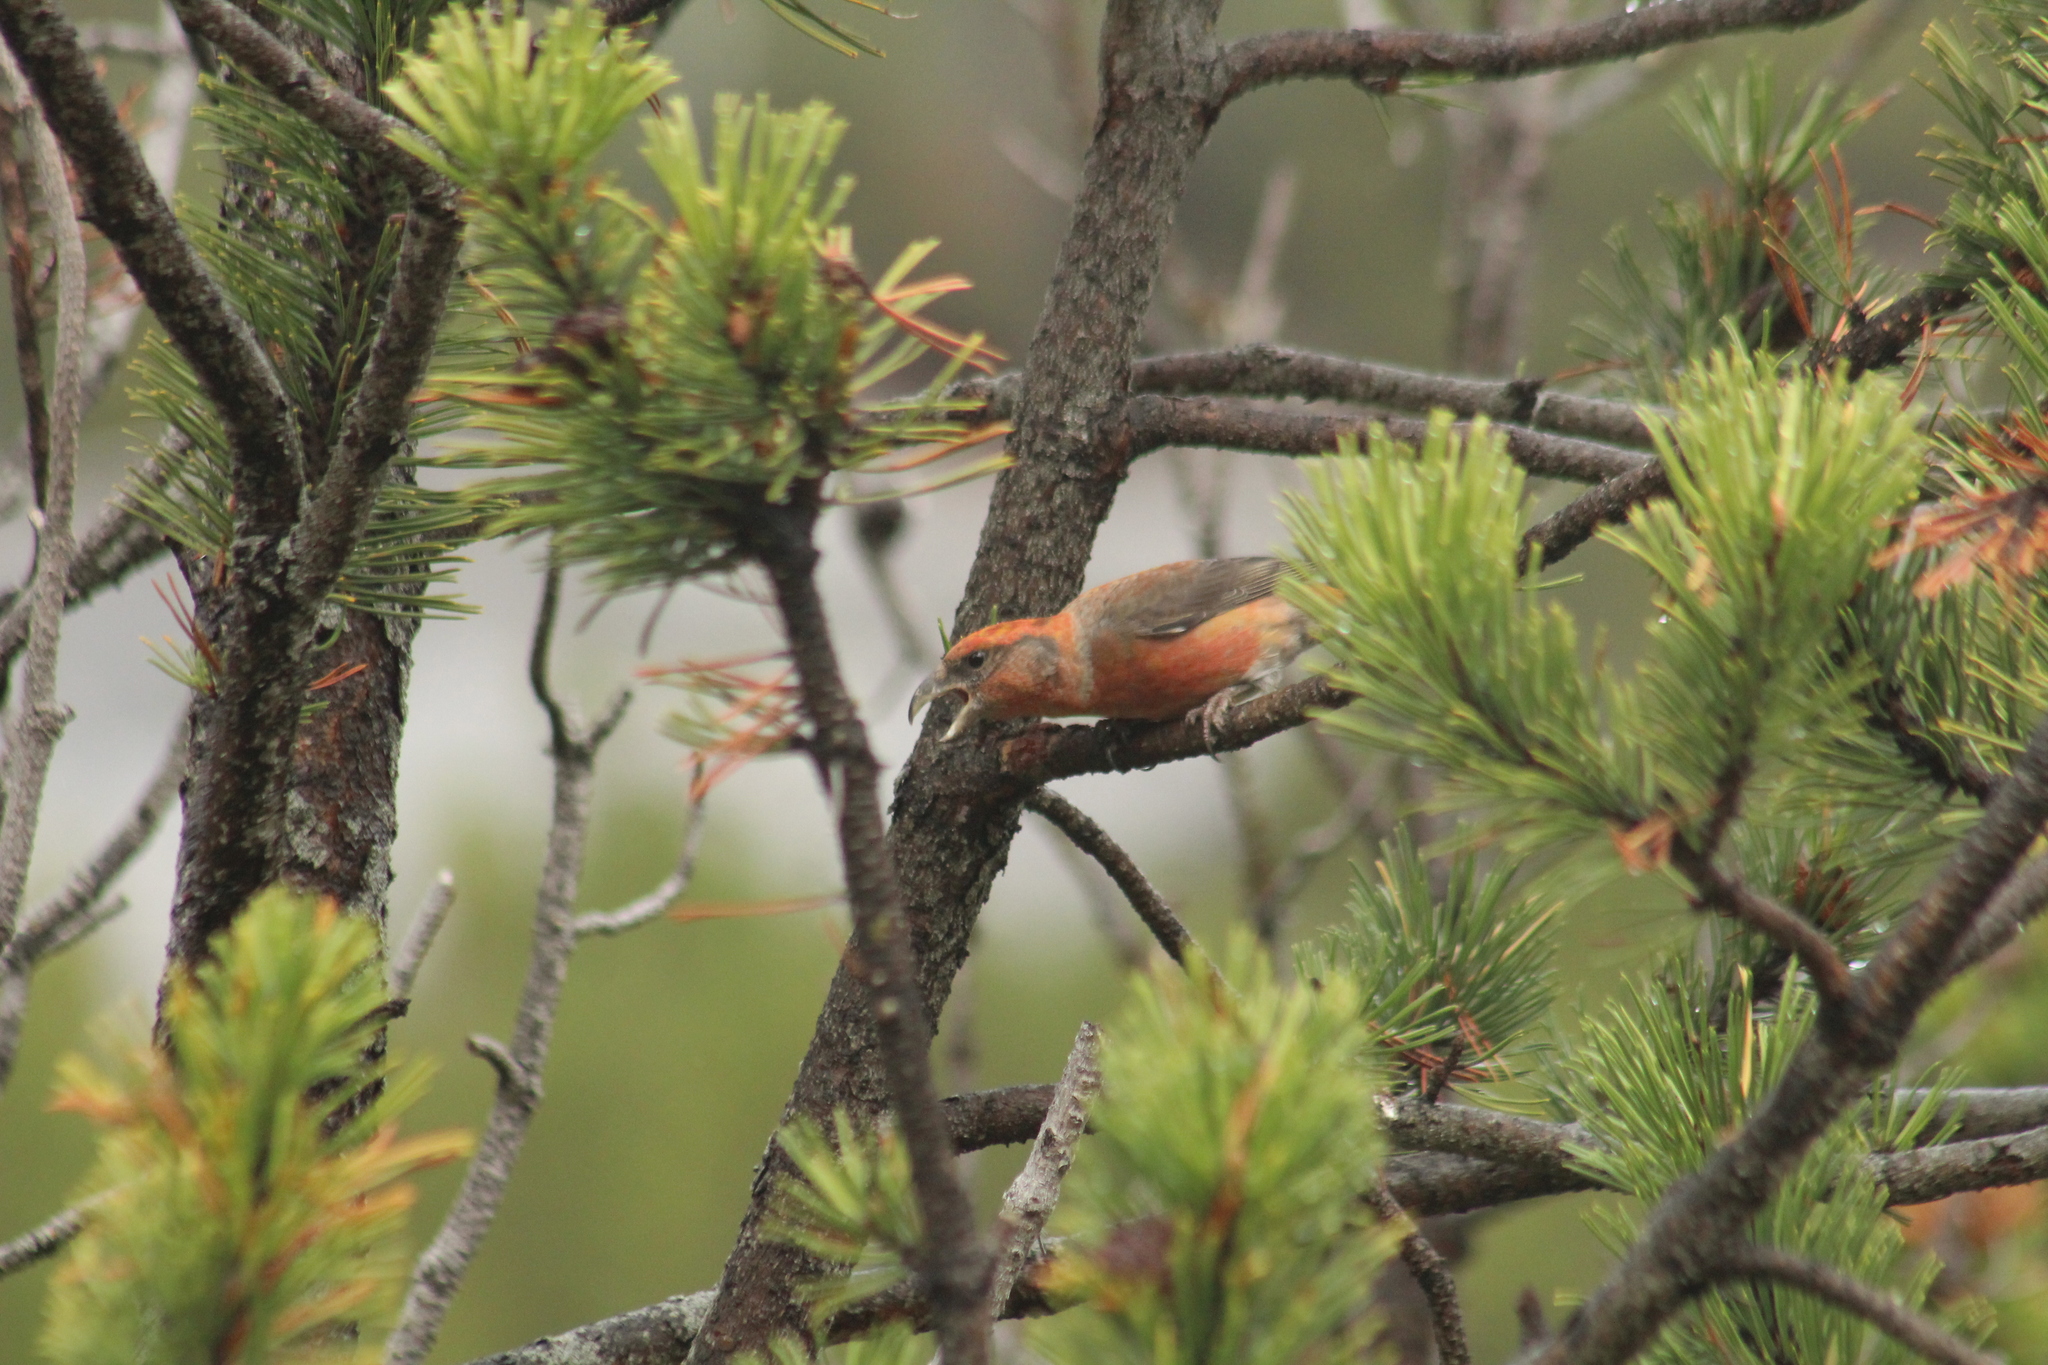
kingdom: Animalia
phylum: Chordata
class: Aves
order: Passeriformes
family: Fringillidae
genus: Loxia
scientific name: Loxia curvirostra
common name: Red crossbill
